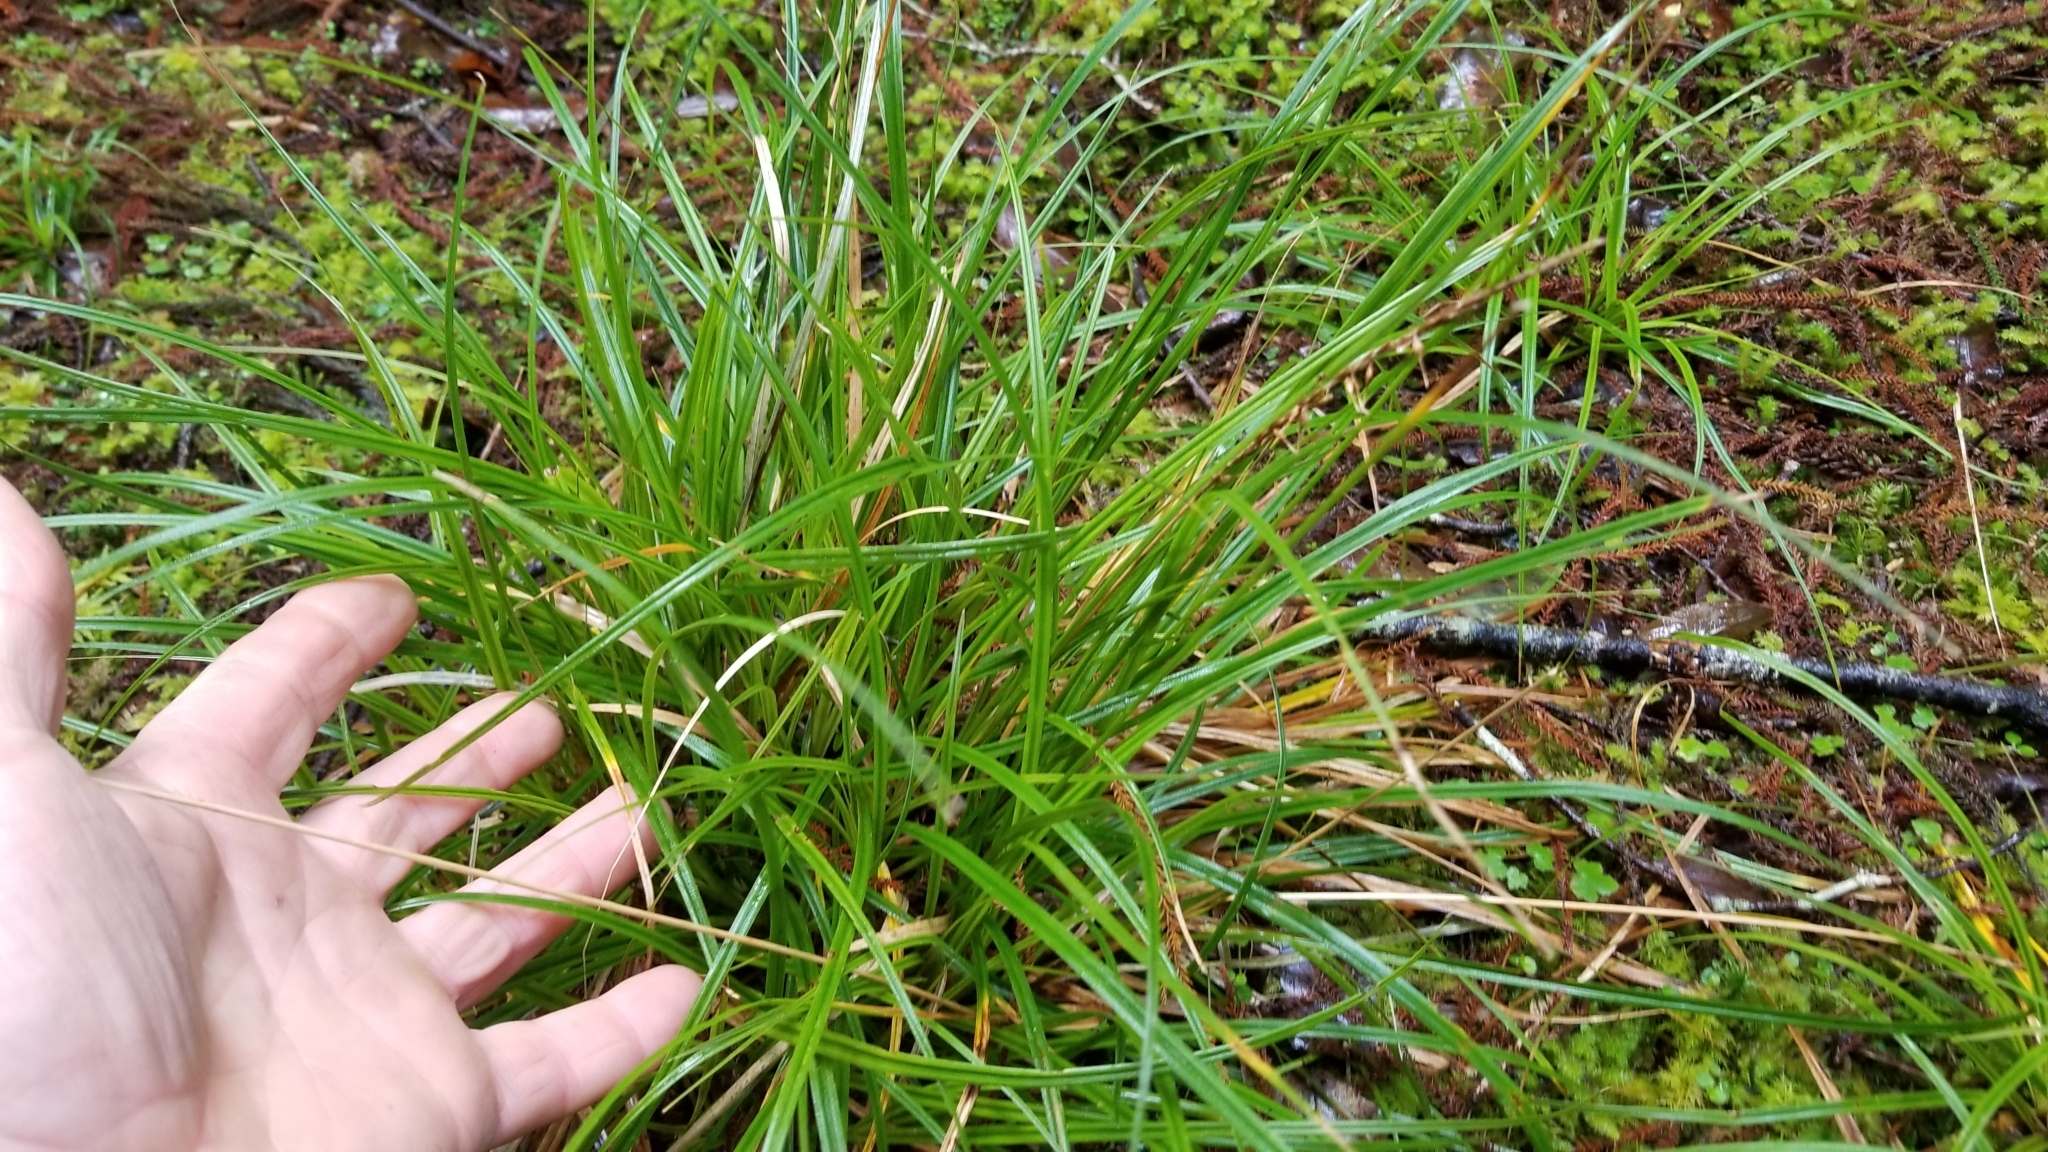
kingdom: Plantae
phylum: Tracheophyta
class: Liliopsida
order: Poales
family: Cyperaceae
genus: Carex
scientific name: Carex uncinata
